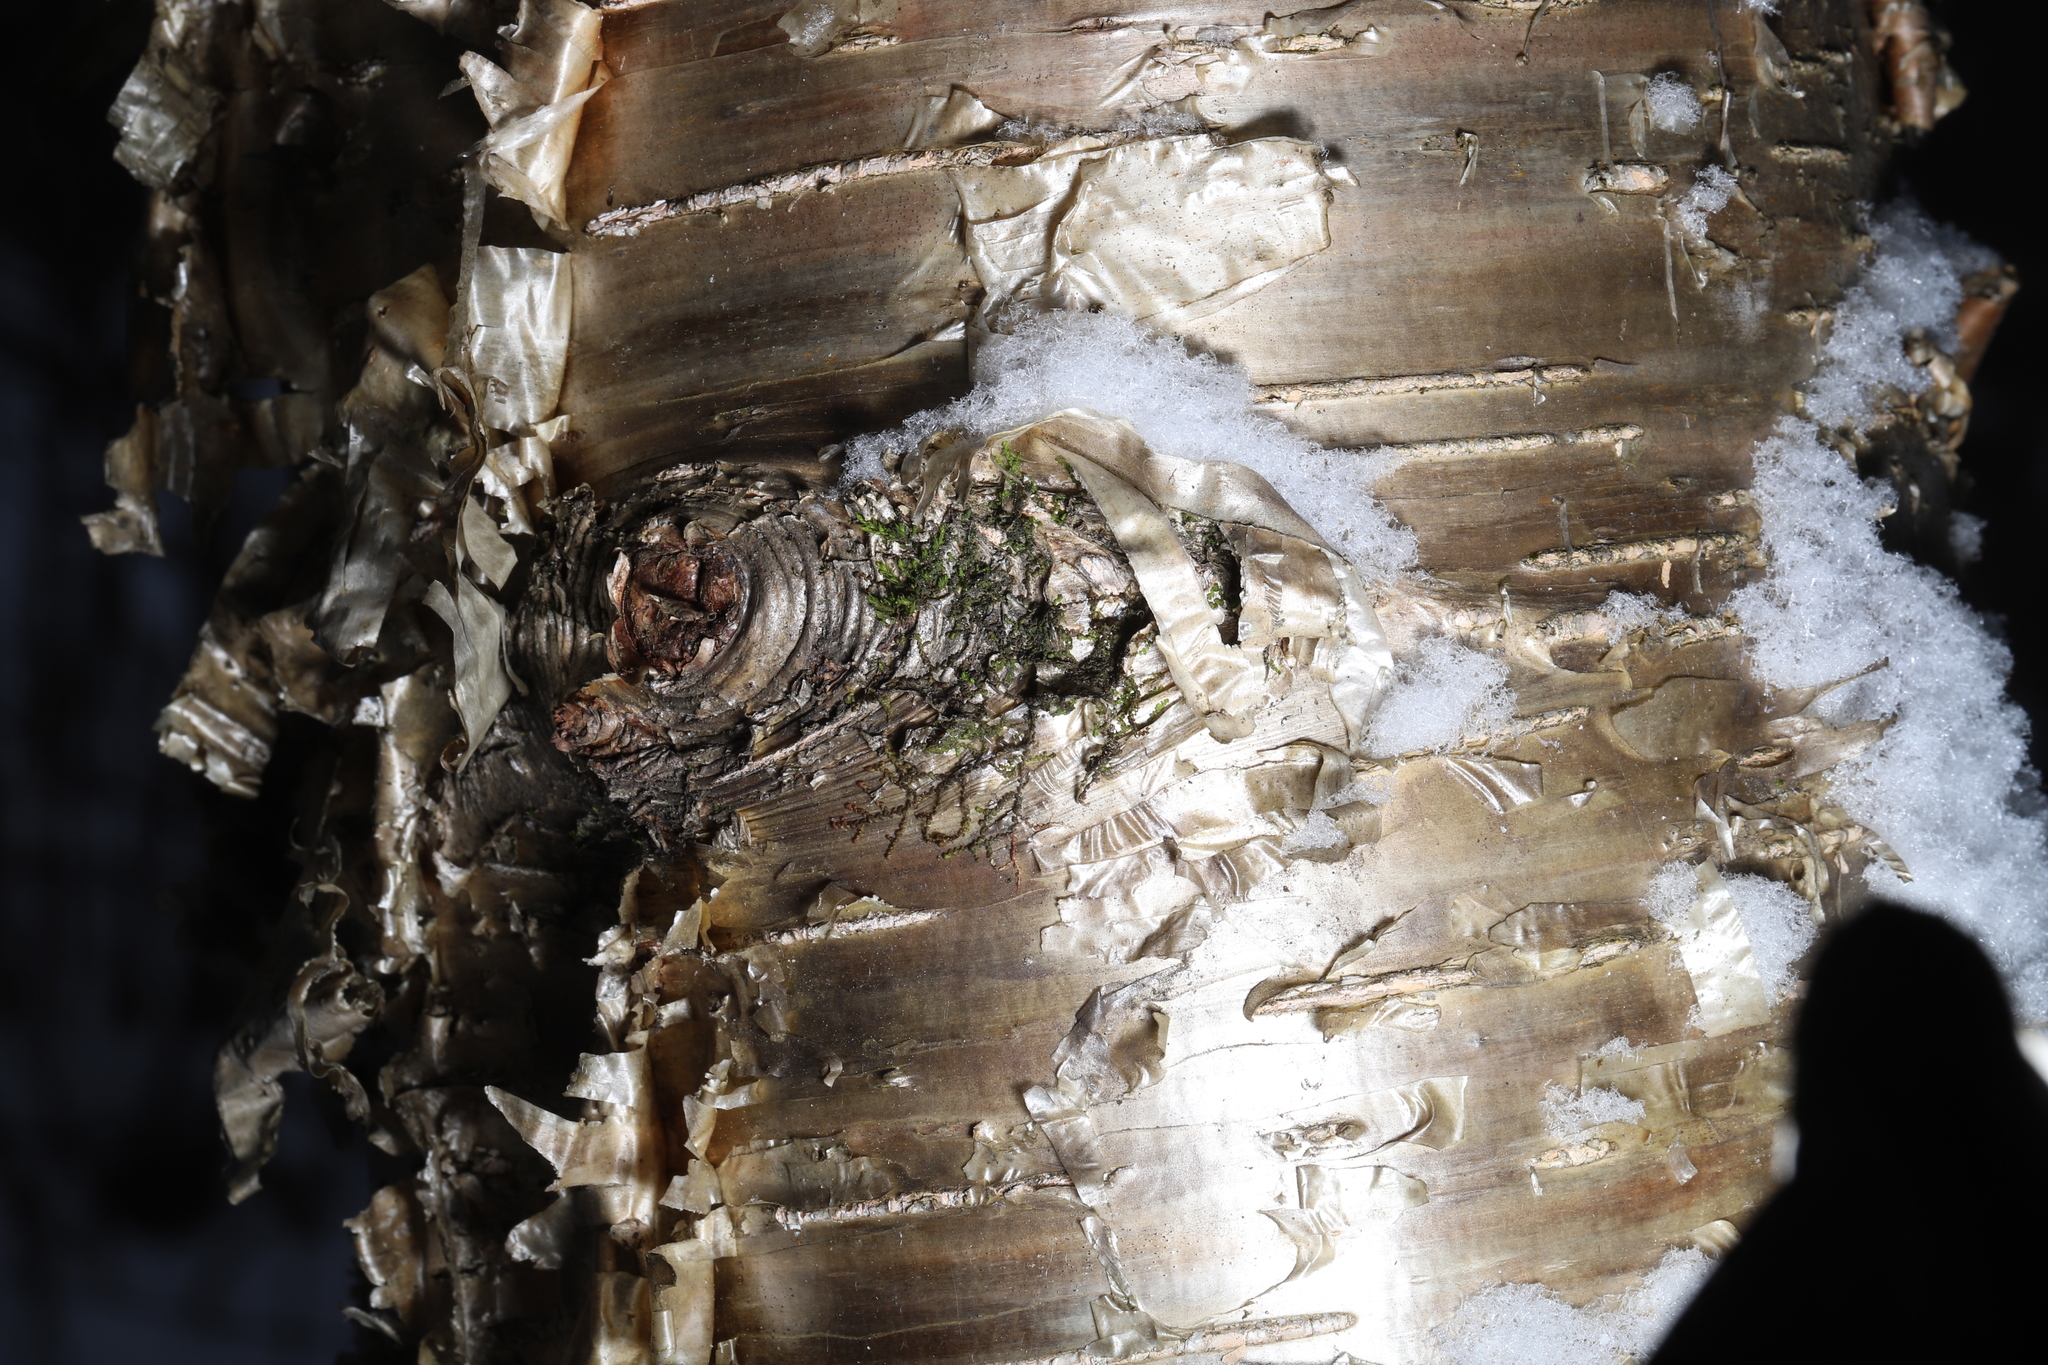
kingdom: Plantae
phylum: Tracheophyta
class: Magnoliopsida
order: Fagales
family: Betulaceae
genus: Betula
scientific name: Betula alleghaniensis
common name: Yellow birch
